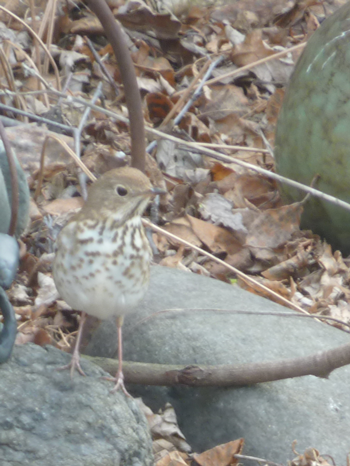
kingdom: Animalia
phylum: Chordata
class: Aves
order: Passeriformes
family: Turdidae
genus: Catharus
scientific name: Catharus guttatus
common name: Hermit thrush
